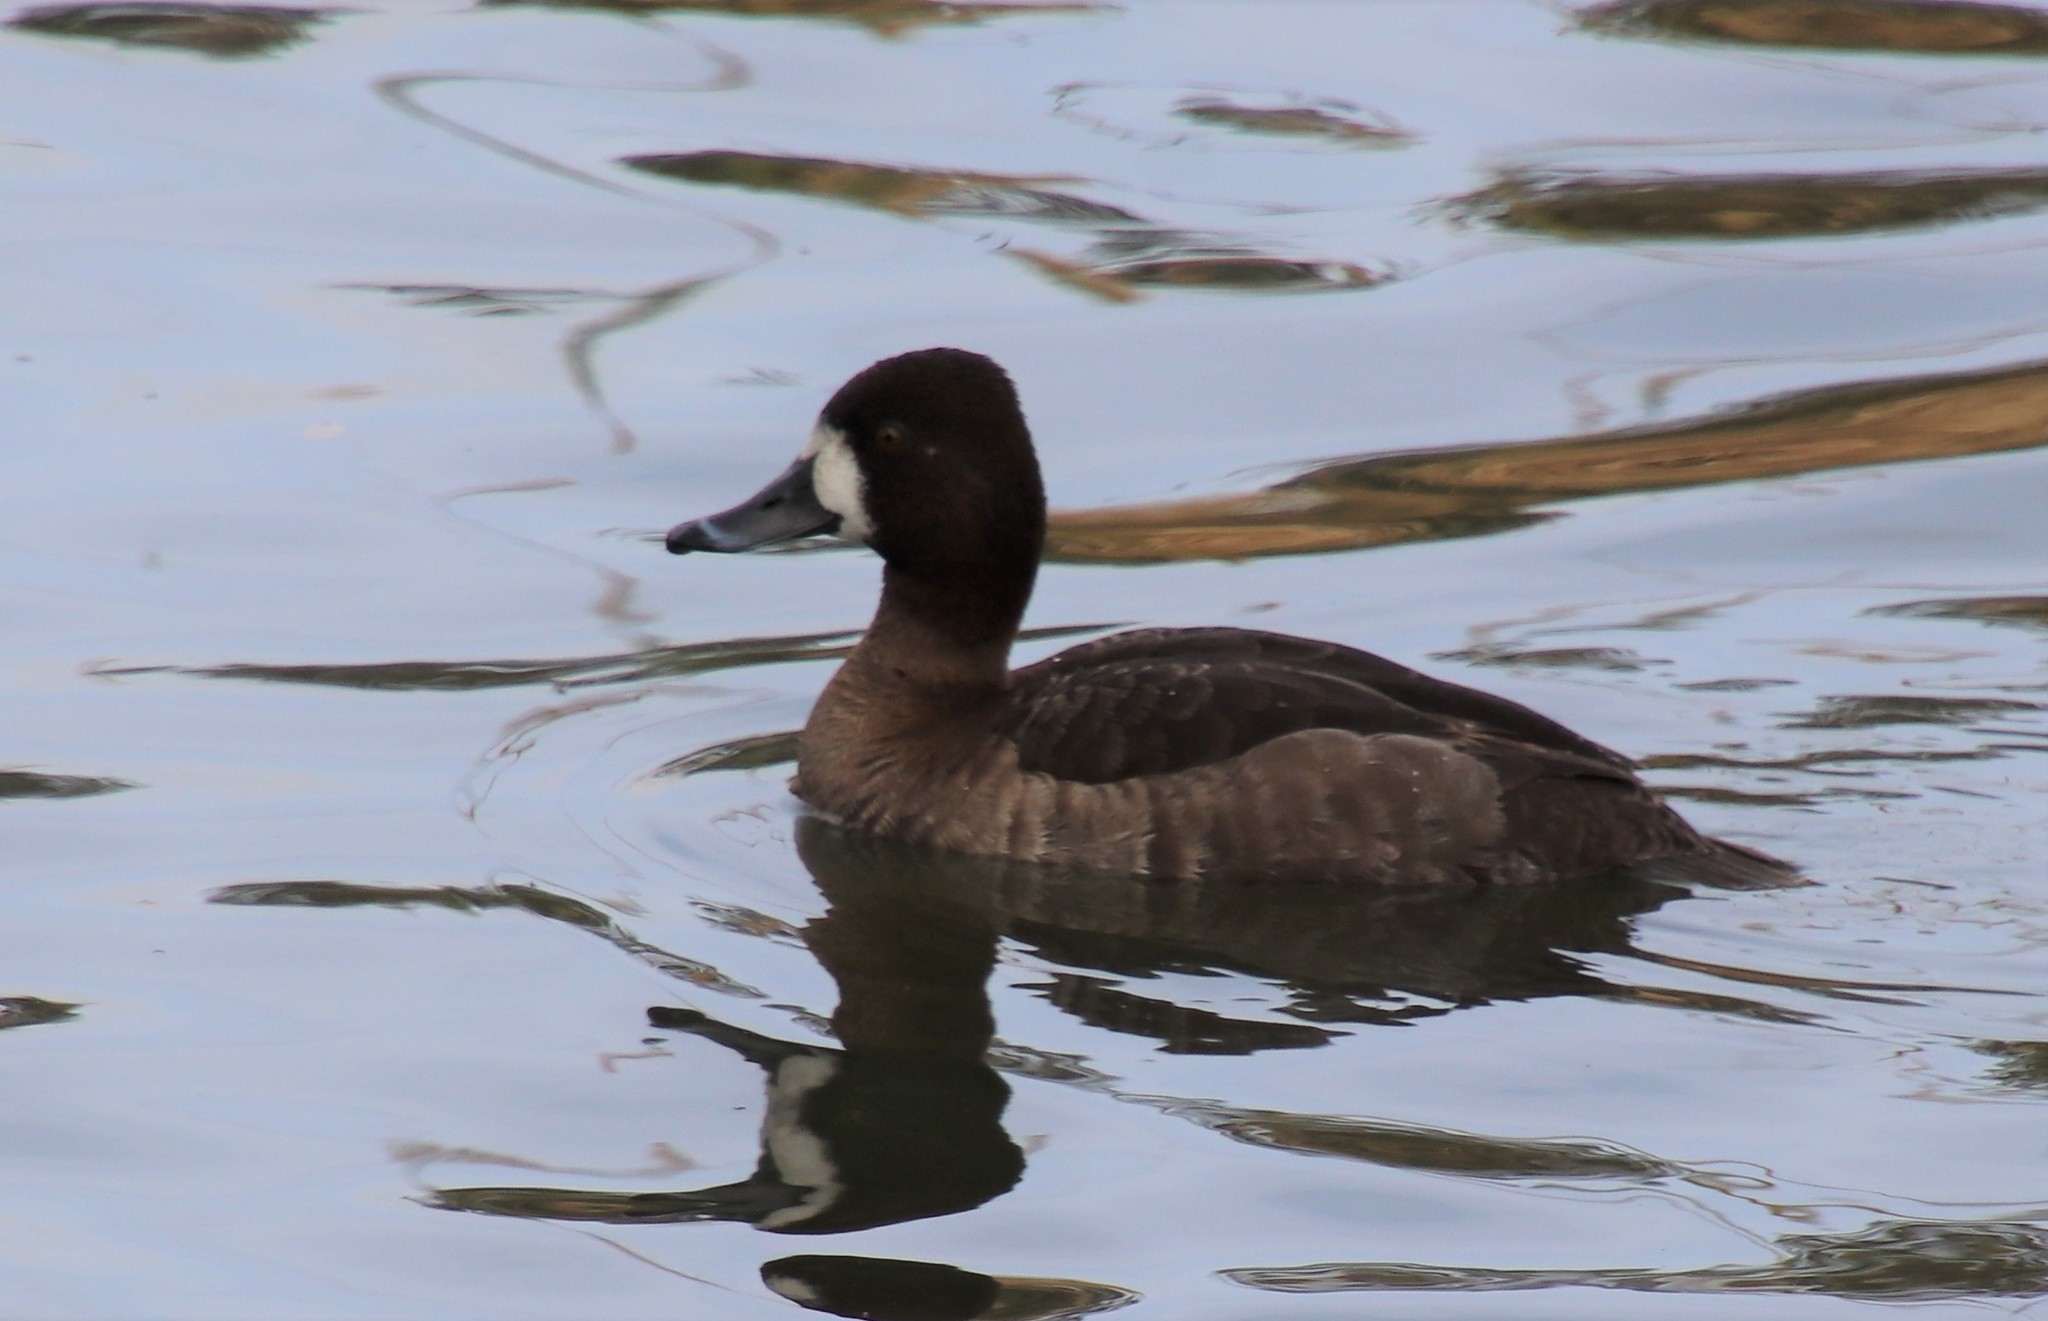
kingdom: Animalia
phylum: Chordata
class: Aves
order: Anseriformes
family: Anatidae
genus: Aythya
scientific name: Aythya affinis
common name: Lesser scaup
